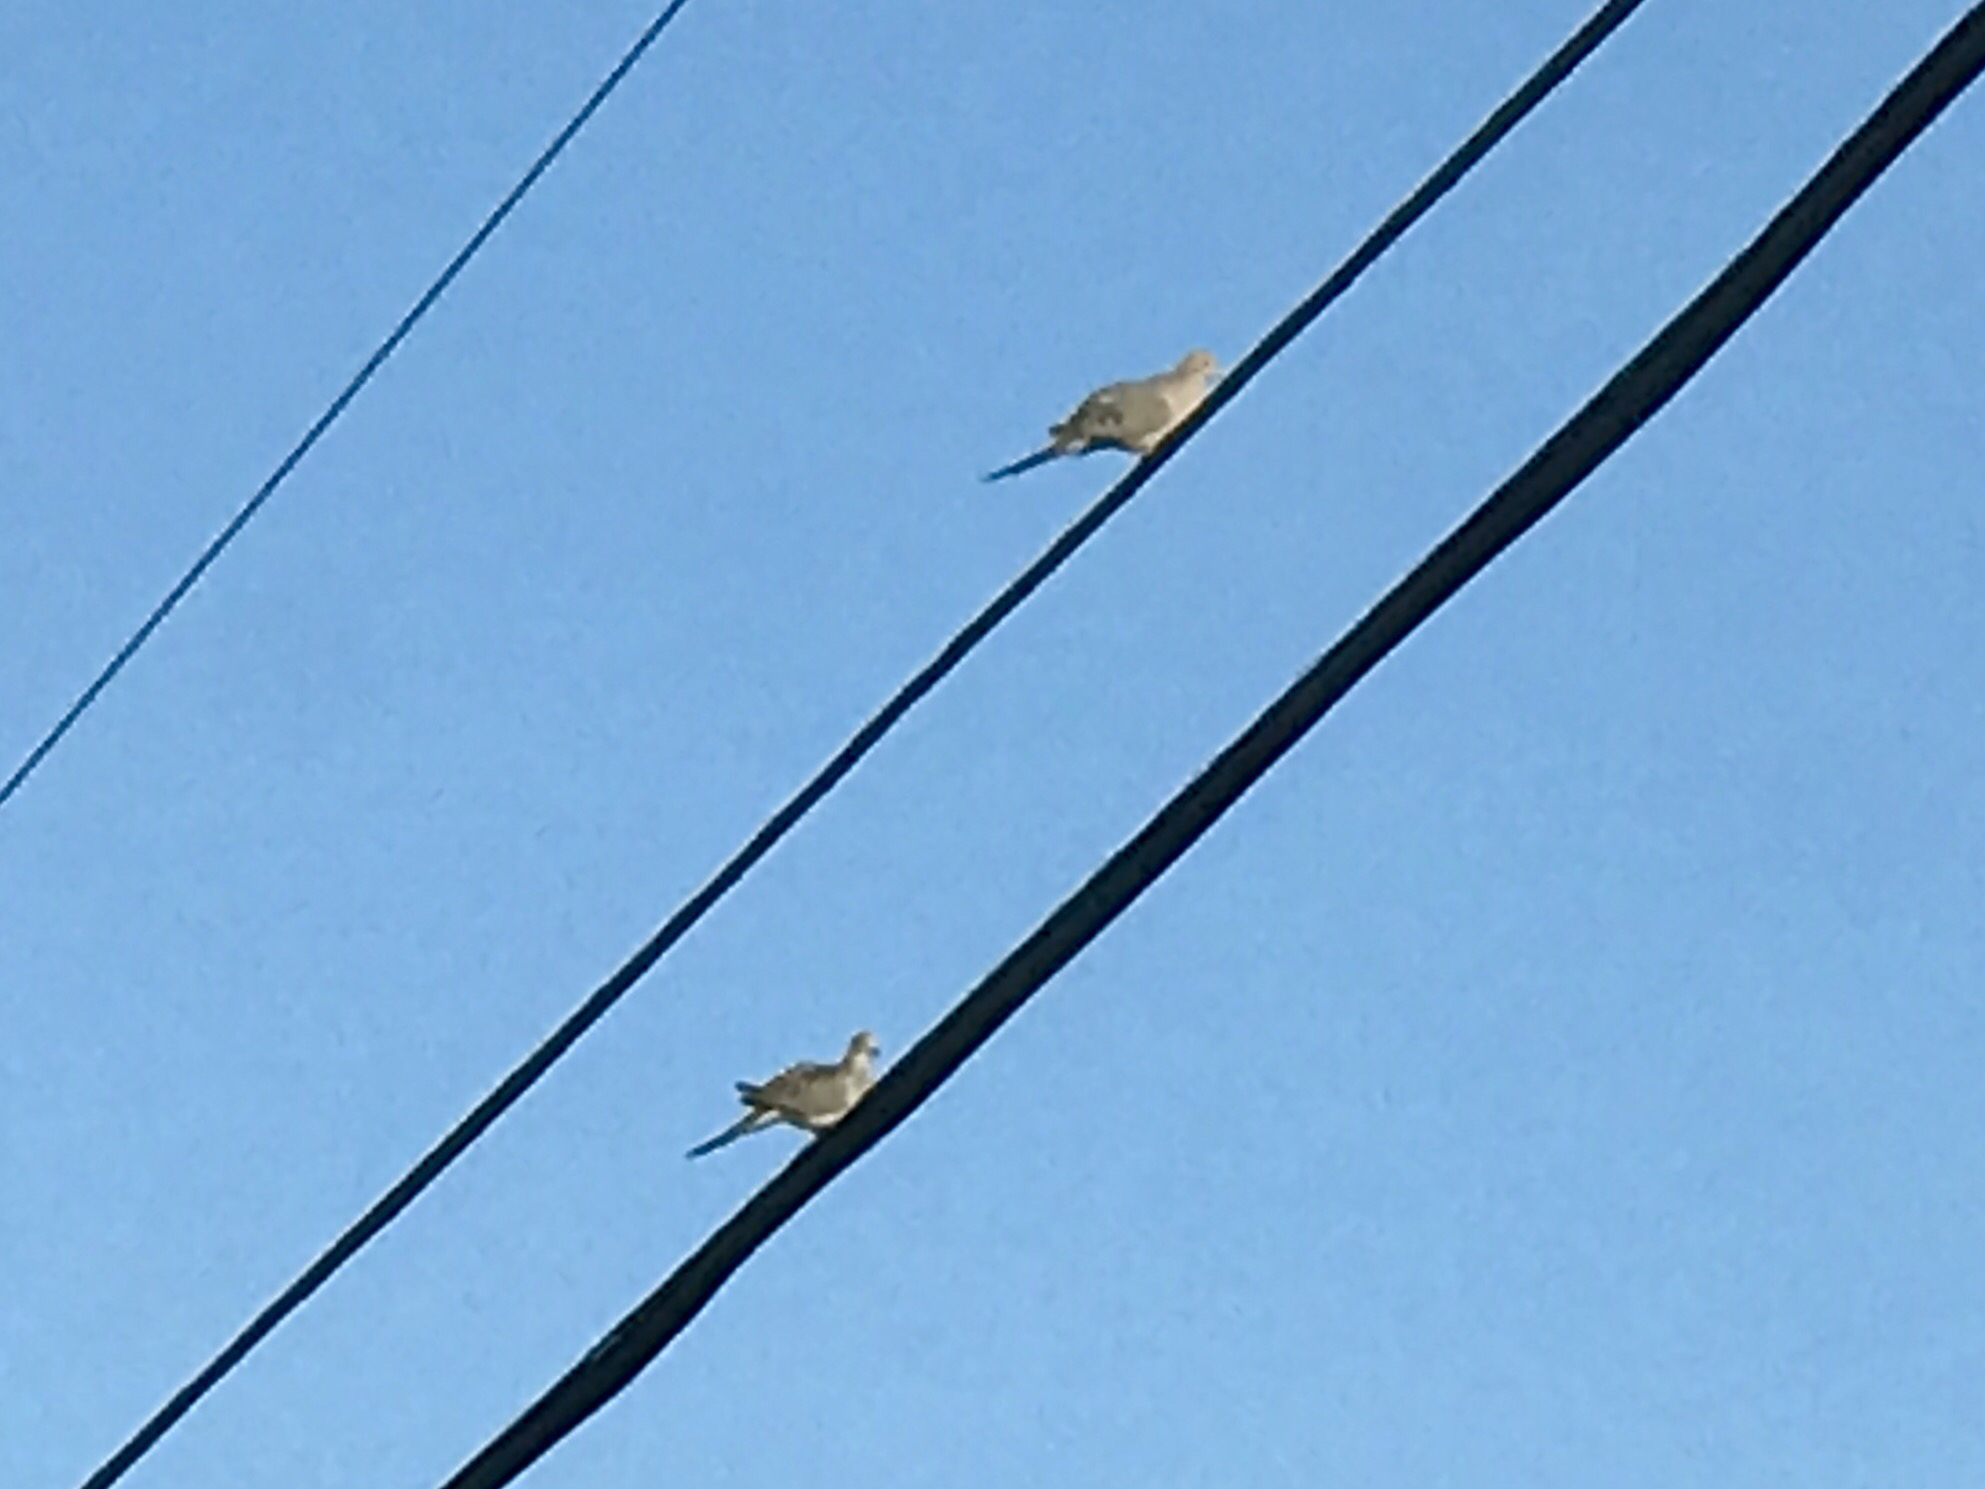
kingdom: Animalia
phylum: Chordata
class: Aves
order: Columbiformes
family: Columbidae
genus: Zenaida
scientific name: Zenaida macroura
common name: Mourning dove
